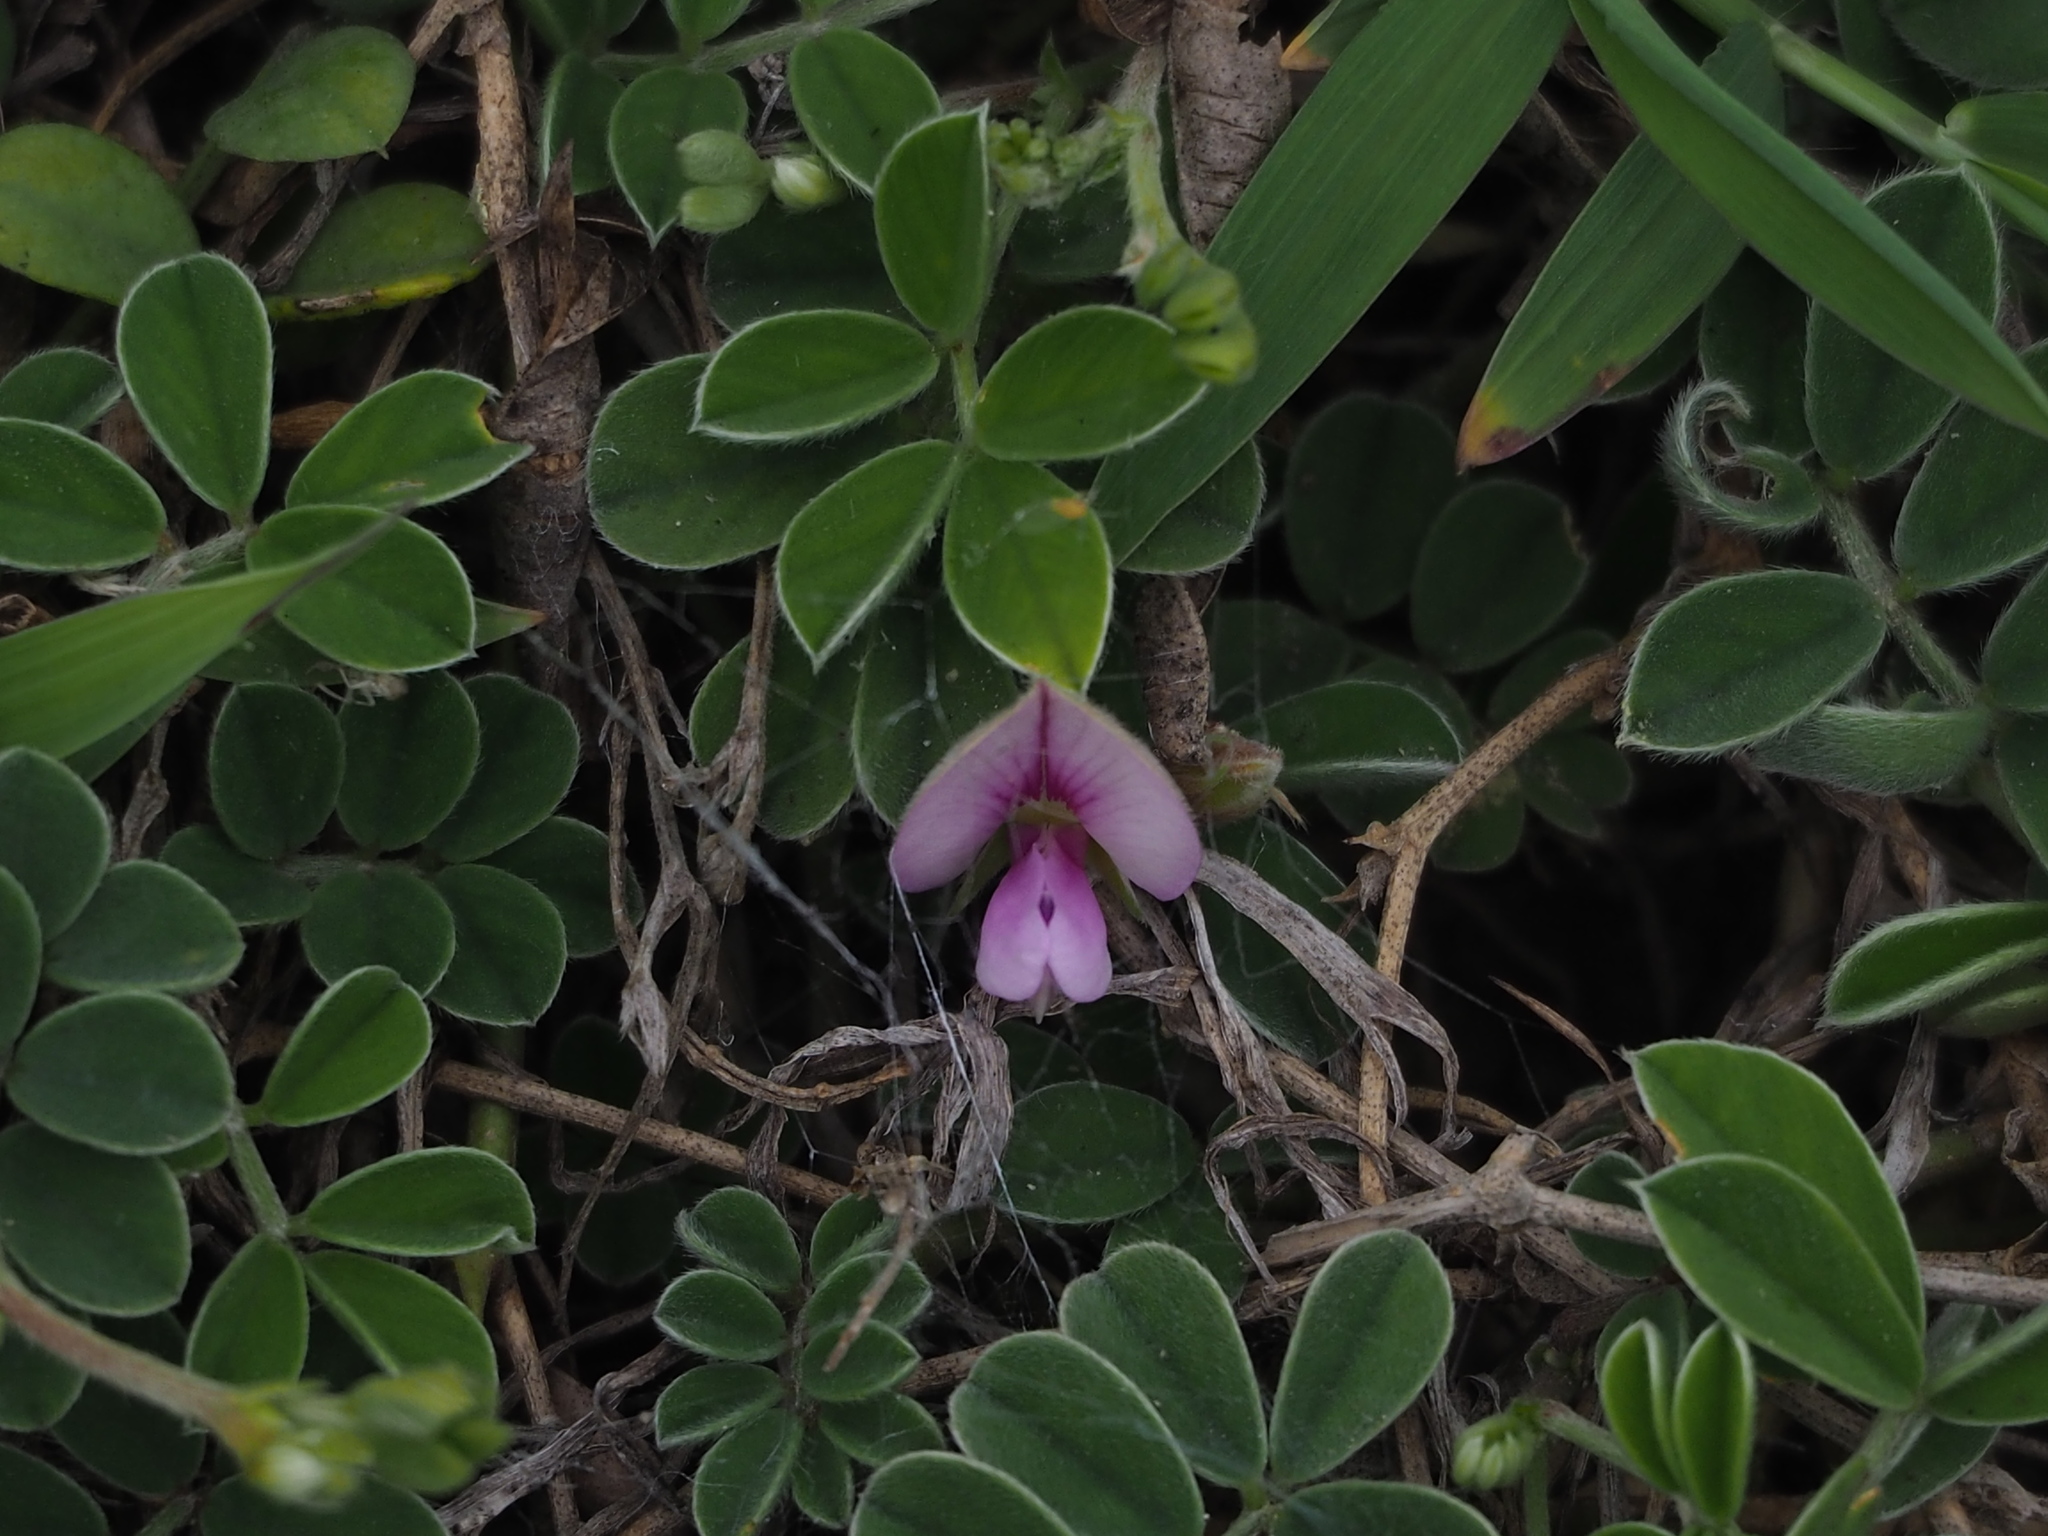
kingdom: Plantae
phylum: Tracheophyta
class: Magnoliopsida
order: Fabales
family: Fabaceae
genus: Tephrosia
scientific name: Tephrosia obovata
